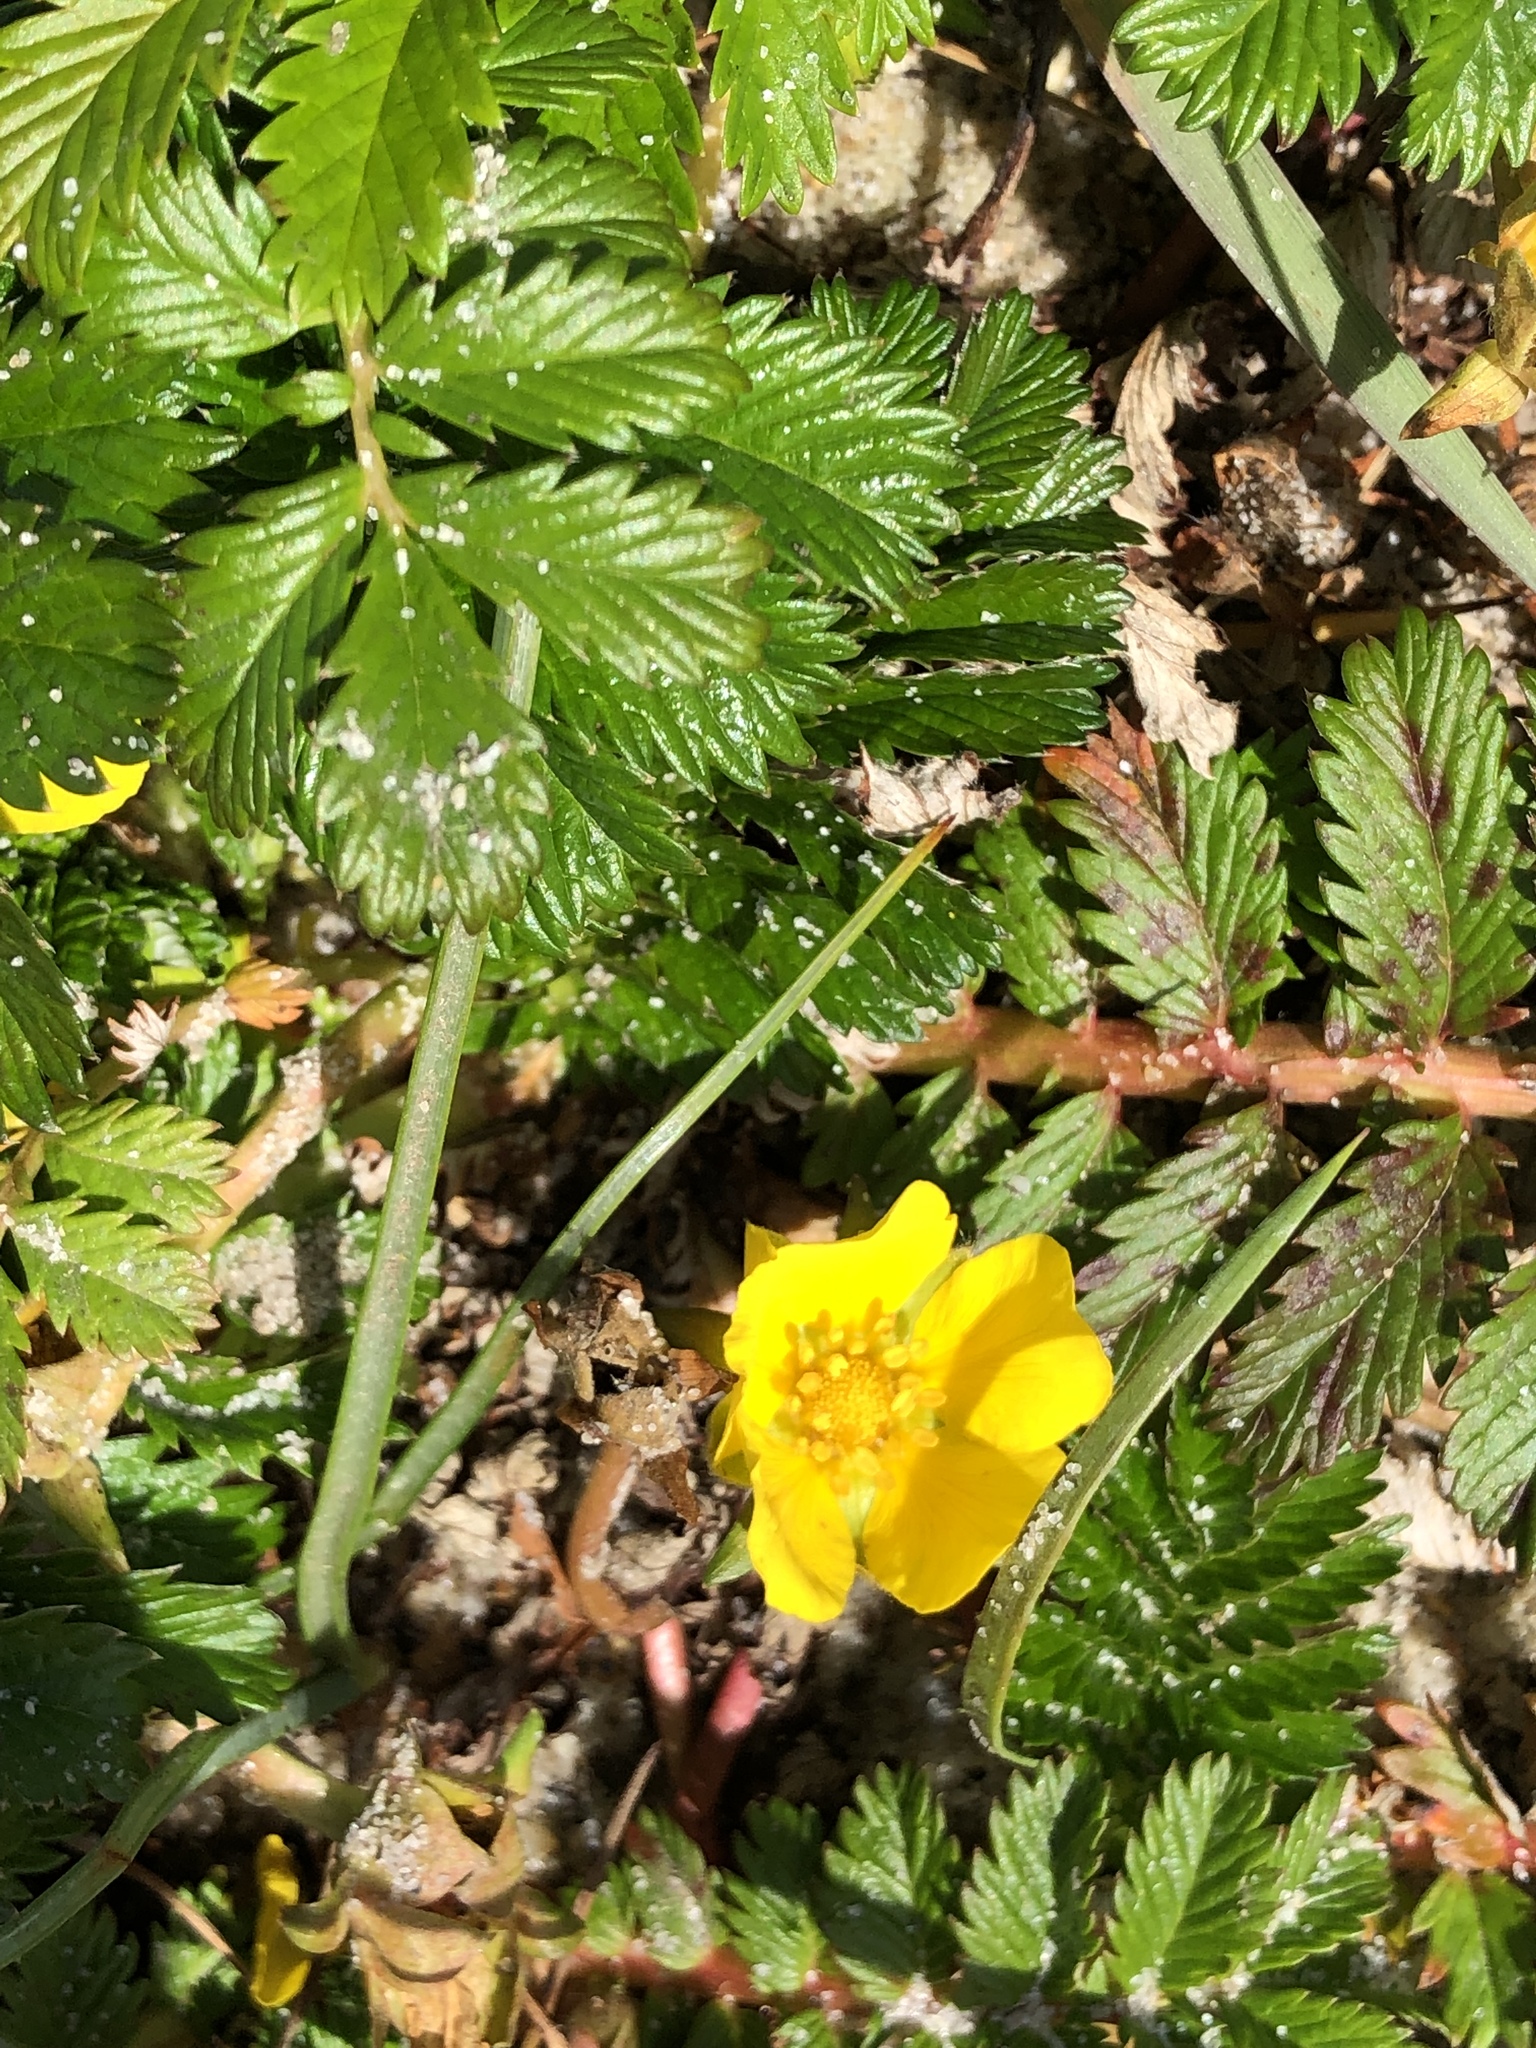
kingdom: Plantae
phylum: Tracheophyta
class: Magnoliopsida
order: Rosales
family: Rosaceae
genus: Argentina
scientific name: Argentina anserina
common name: Common silverweed
